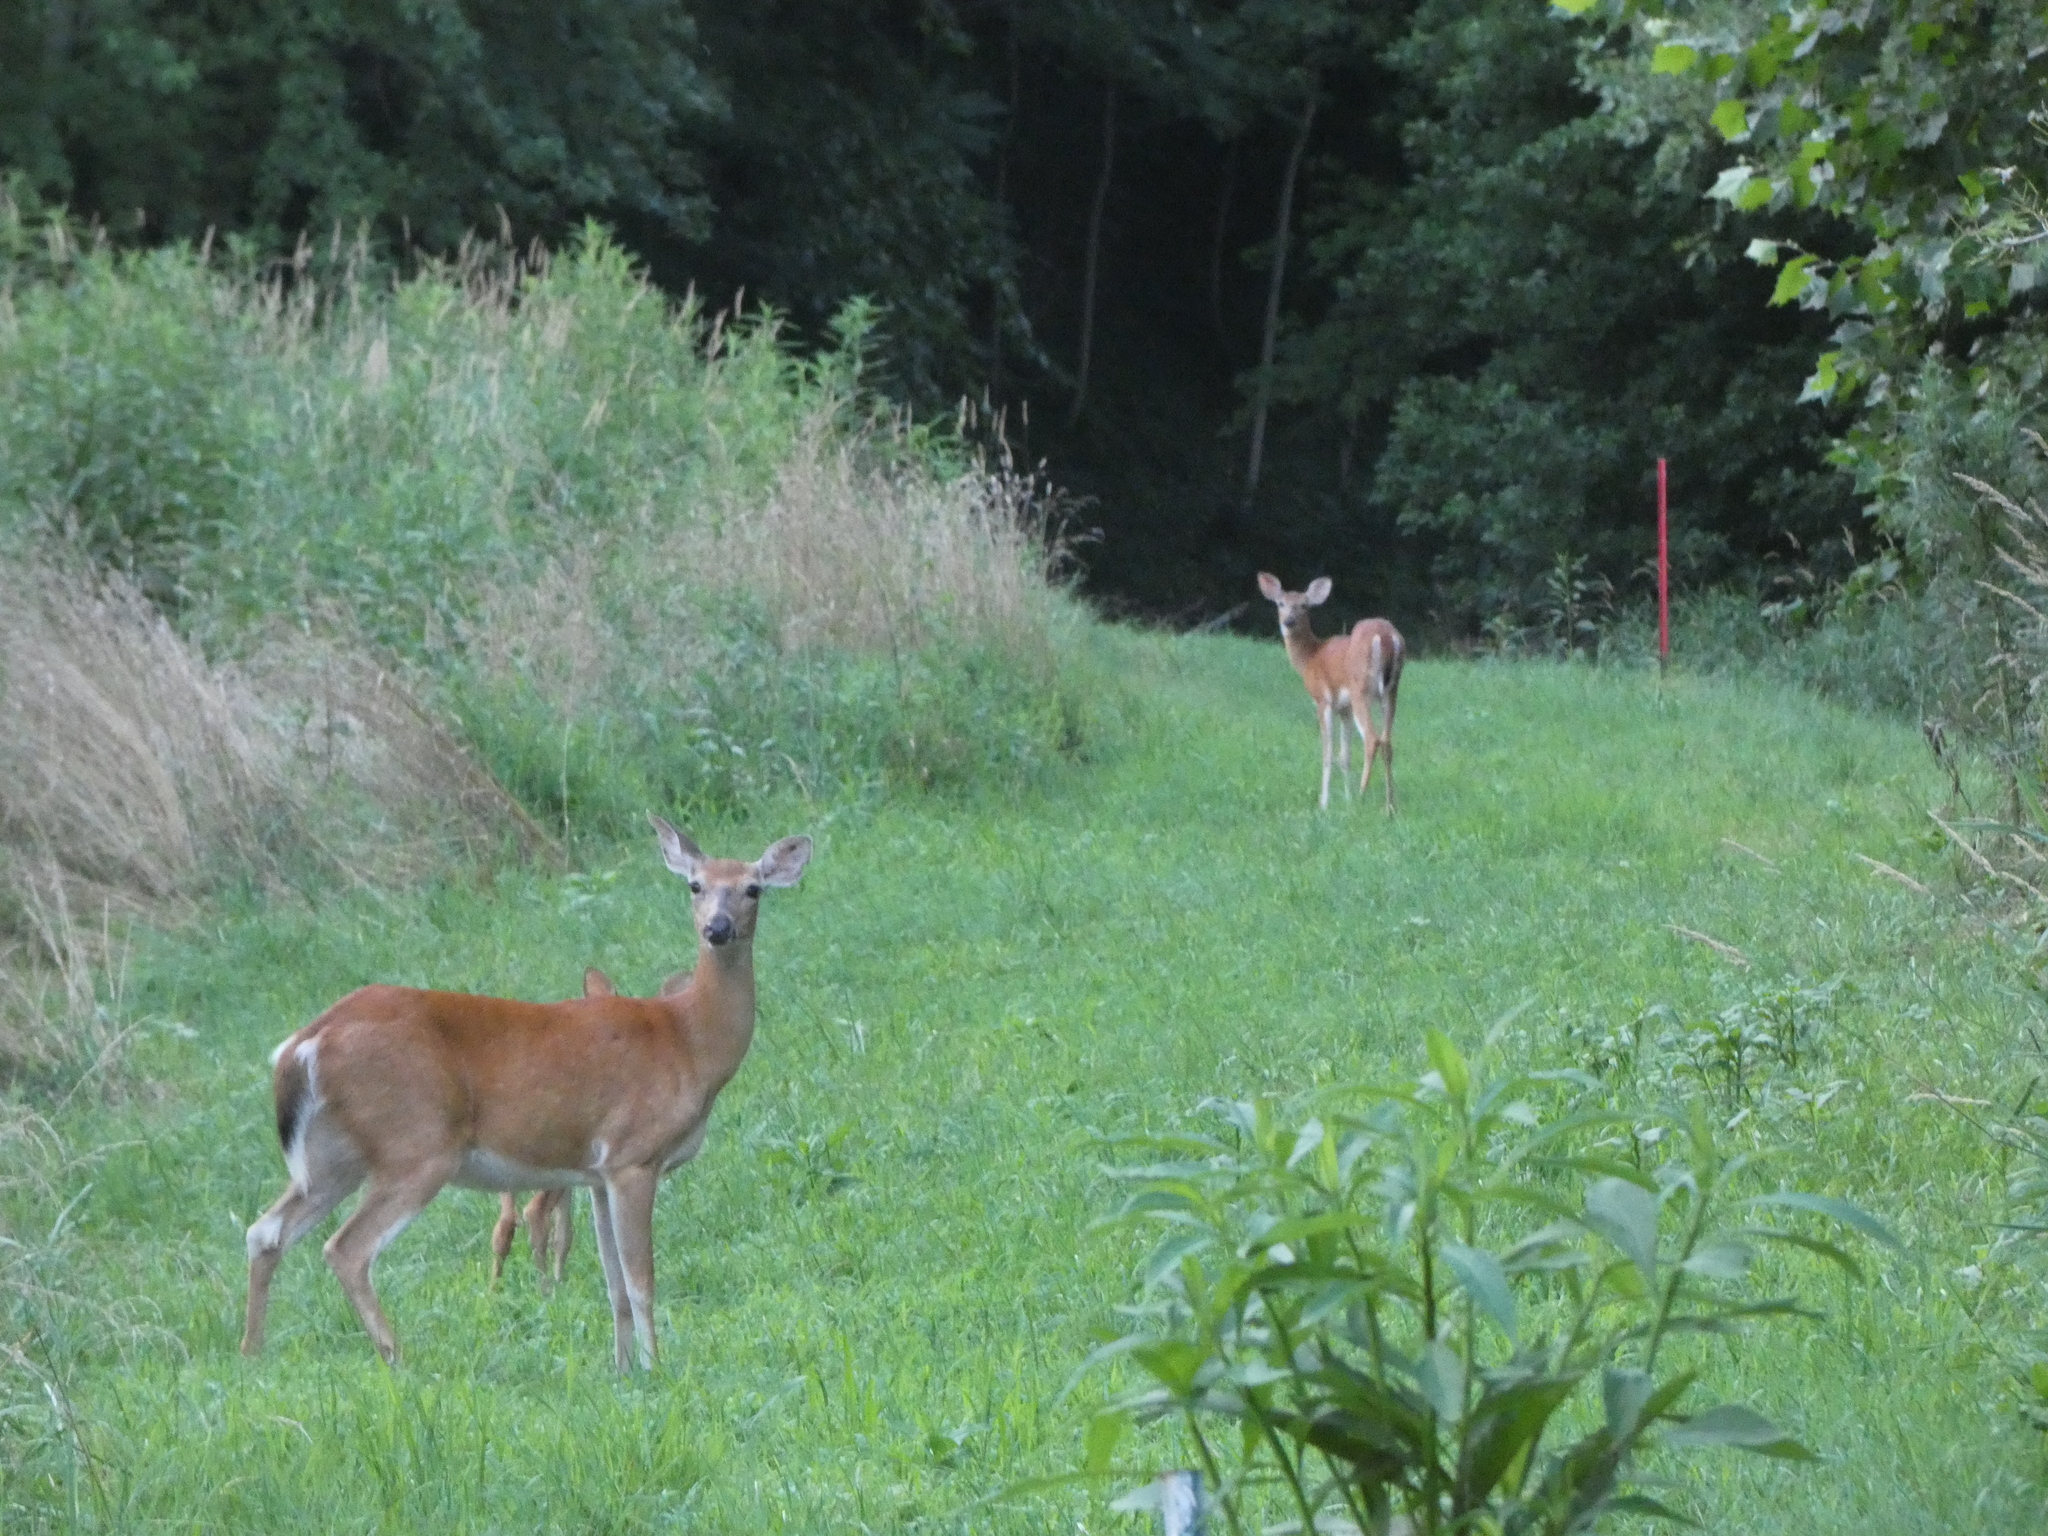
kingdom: Animalia
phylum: Chordata
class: Mammalia
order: Artiodactyla
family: Cervidae
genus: Odocoileus
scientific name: Odocoileus virginianus
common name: White-tailed deer
